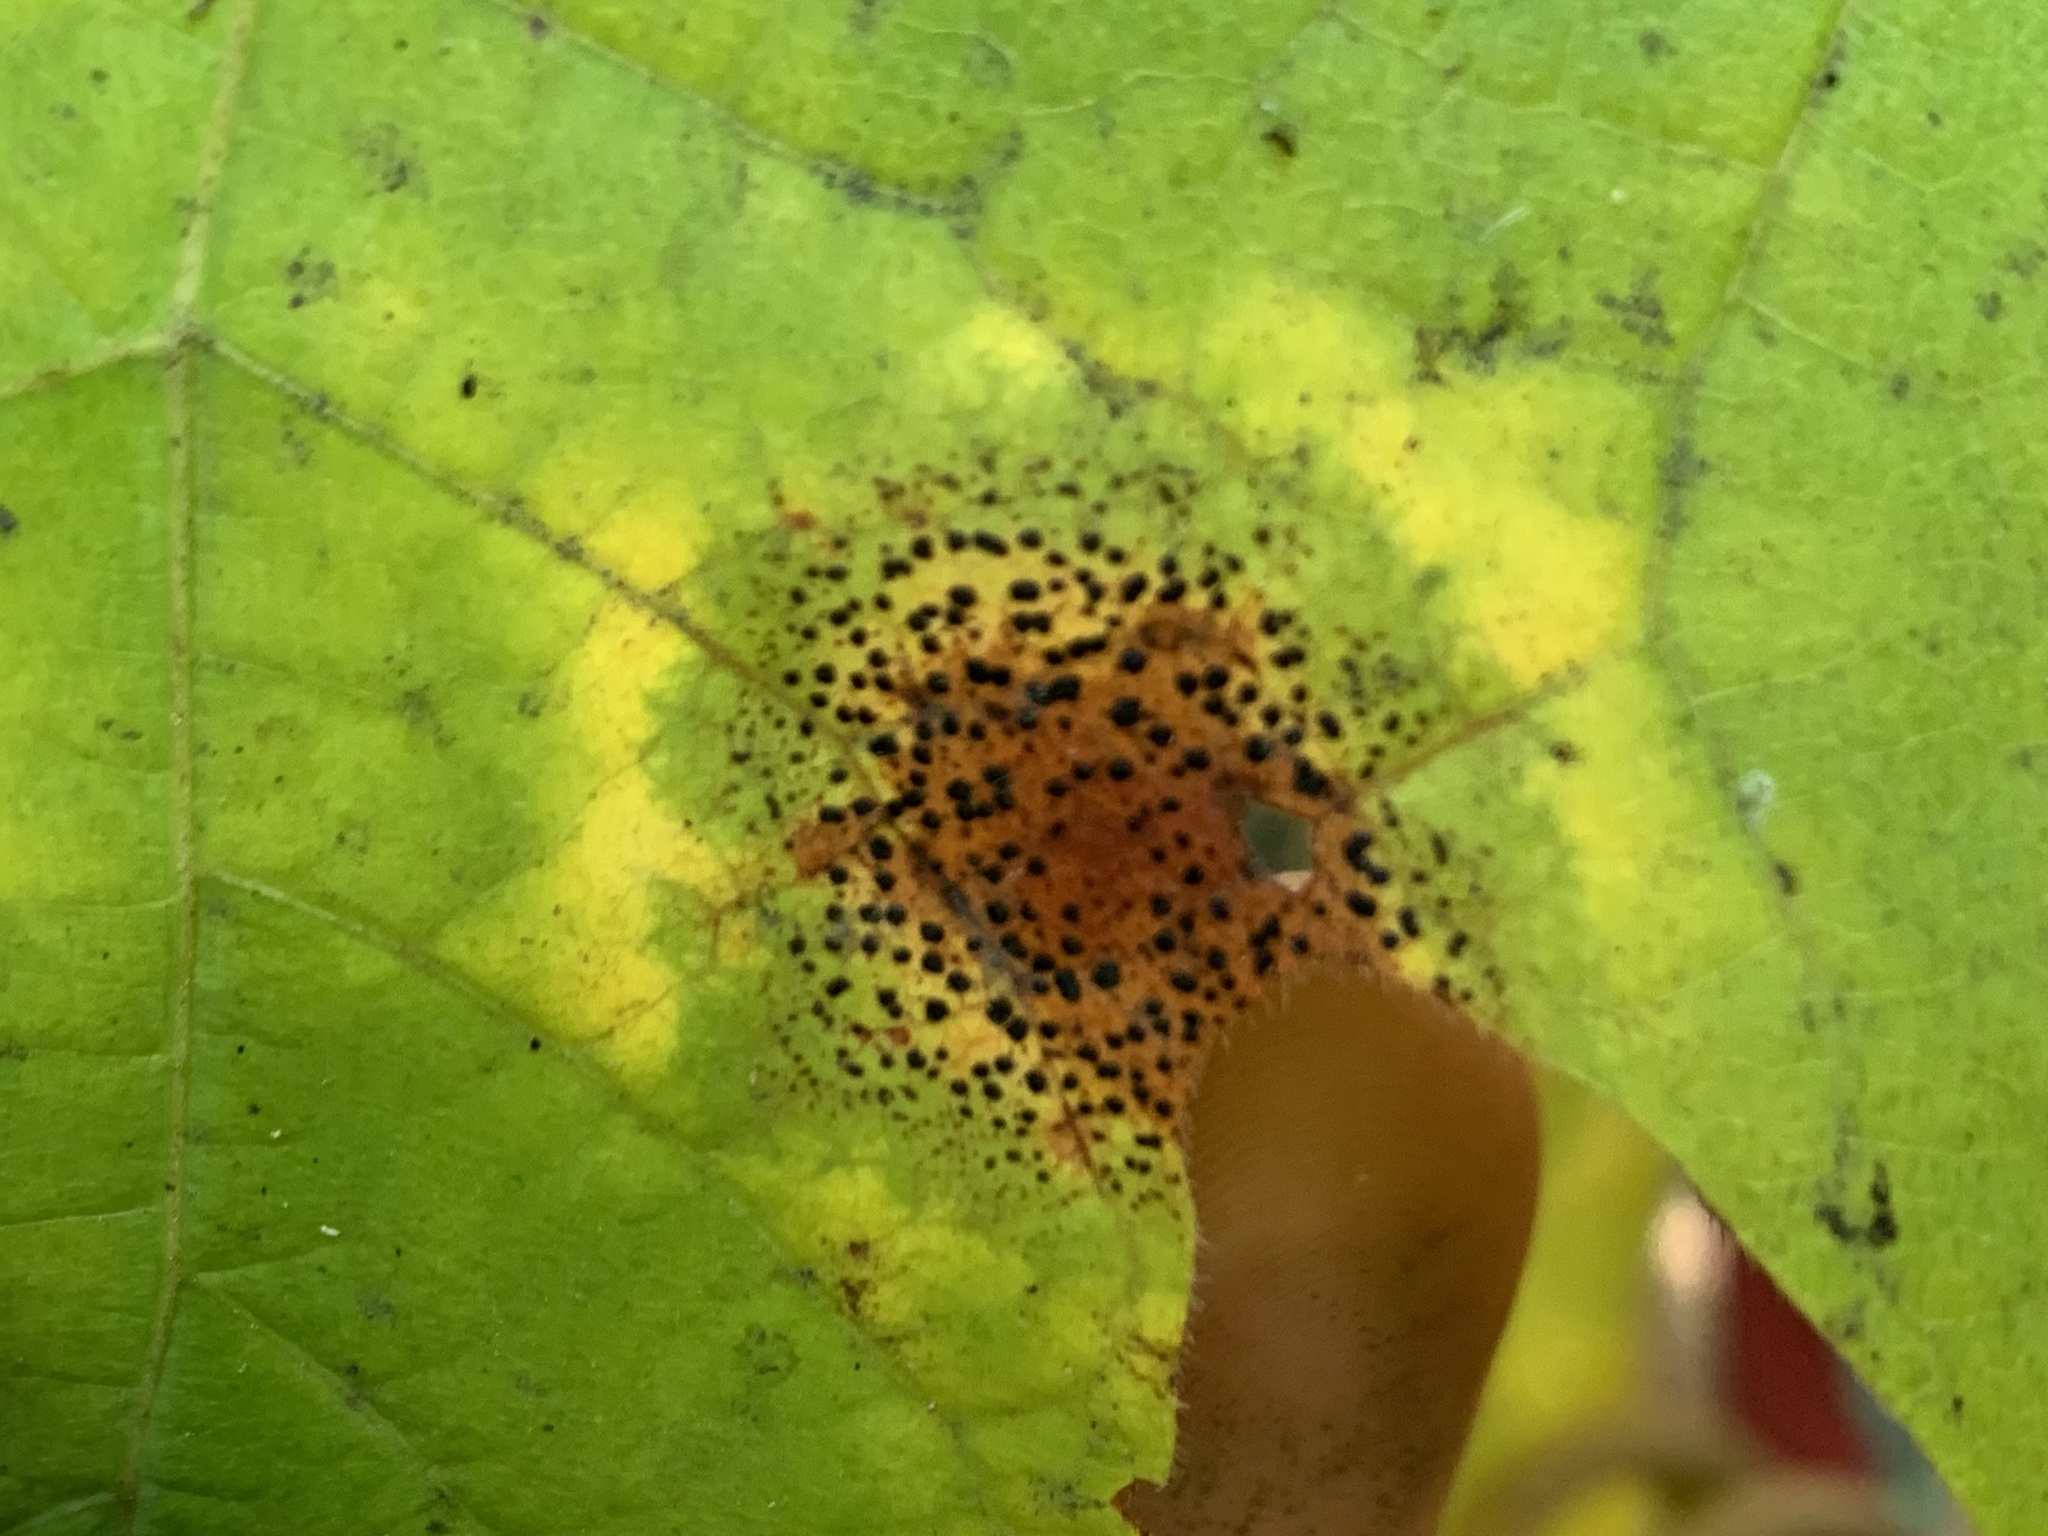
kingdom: Fungi
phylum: Ascomycota
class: Leotiomycetes
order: Rhytismatales
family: Rhytismataceae
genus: Rhytisma
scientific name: Rhytisma punctatum
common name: Speckled tar spot
